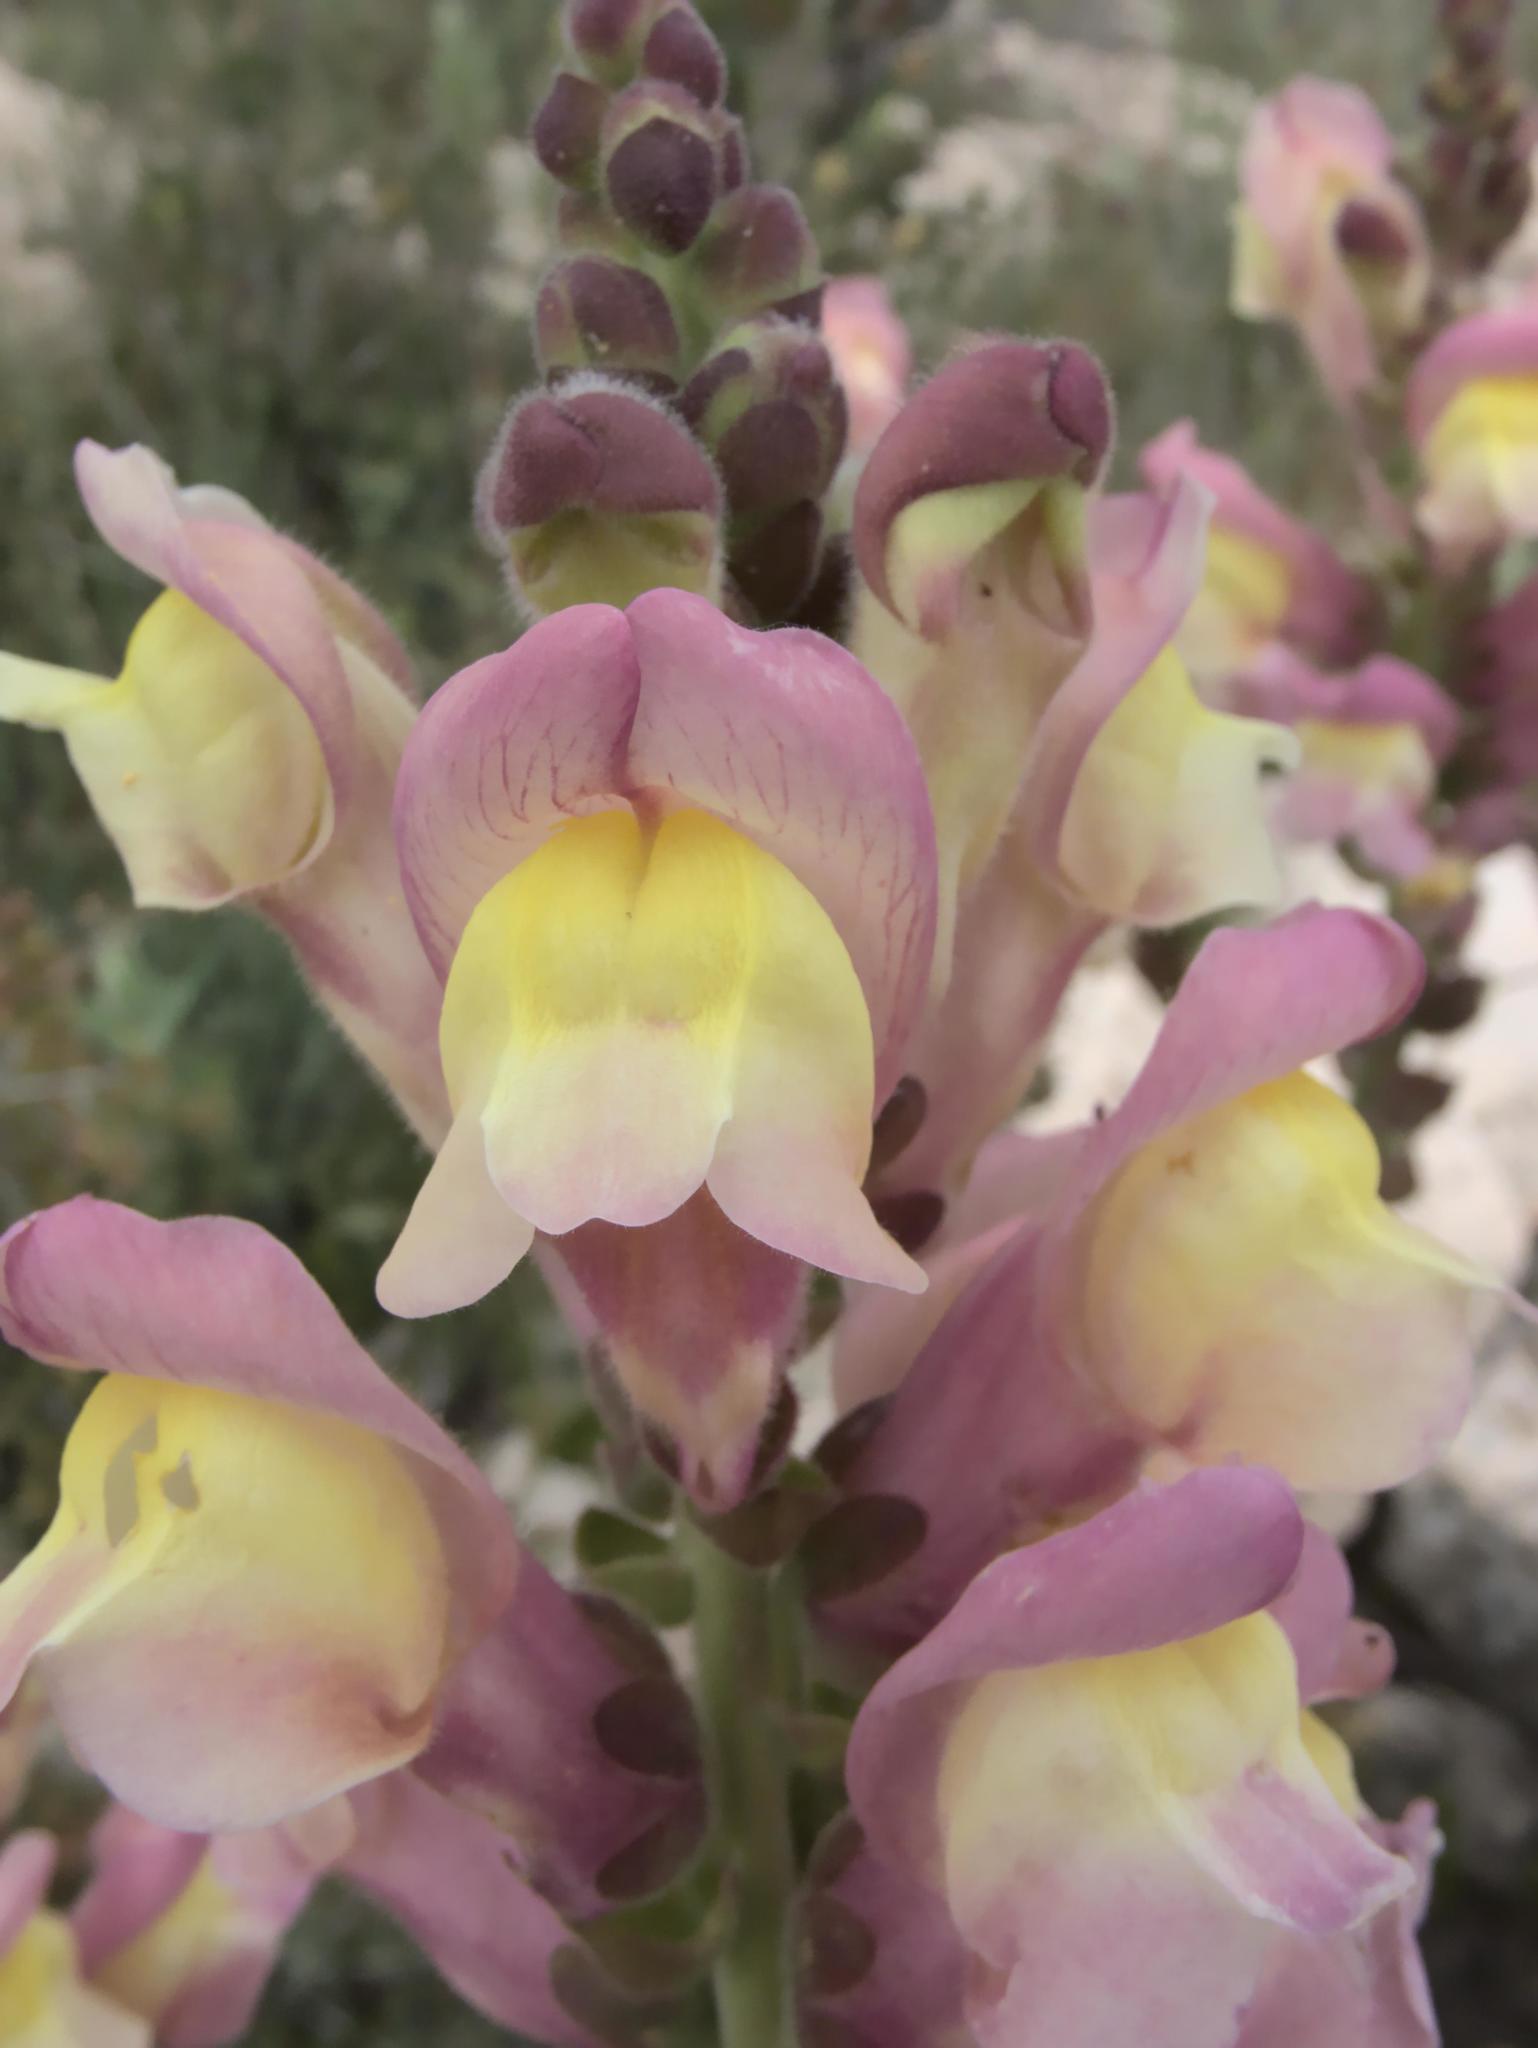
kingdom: Plantae
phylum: Tracheophyta
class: Magnoliopsida
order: Lamiales
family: Plantaginaceae
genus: Antirrhinum
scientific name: Antirrhinum latifolium
